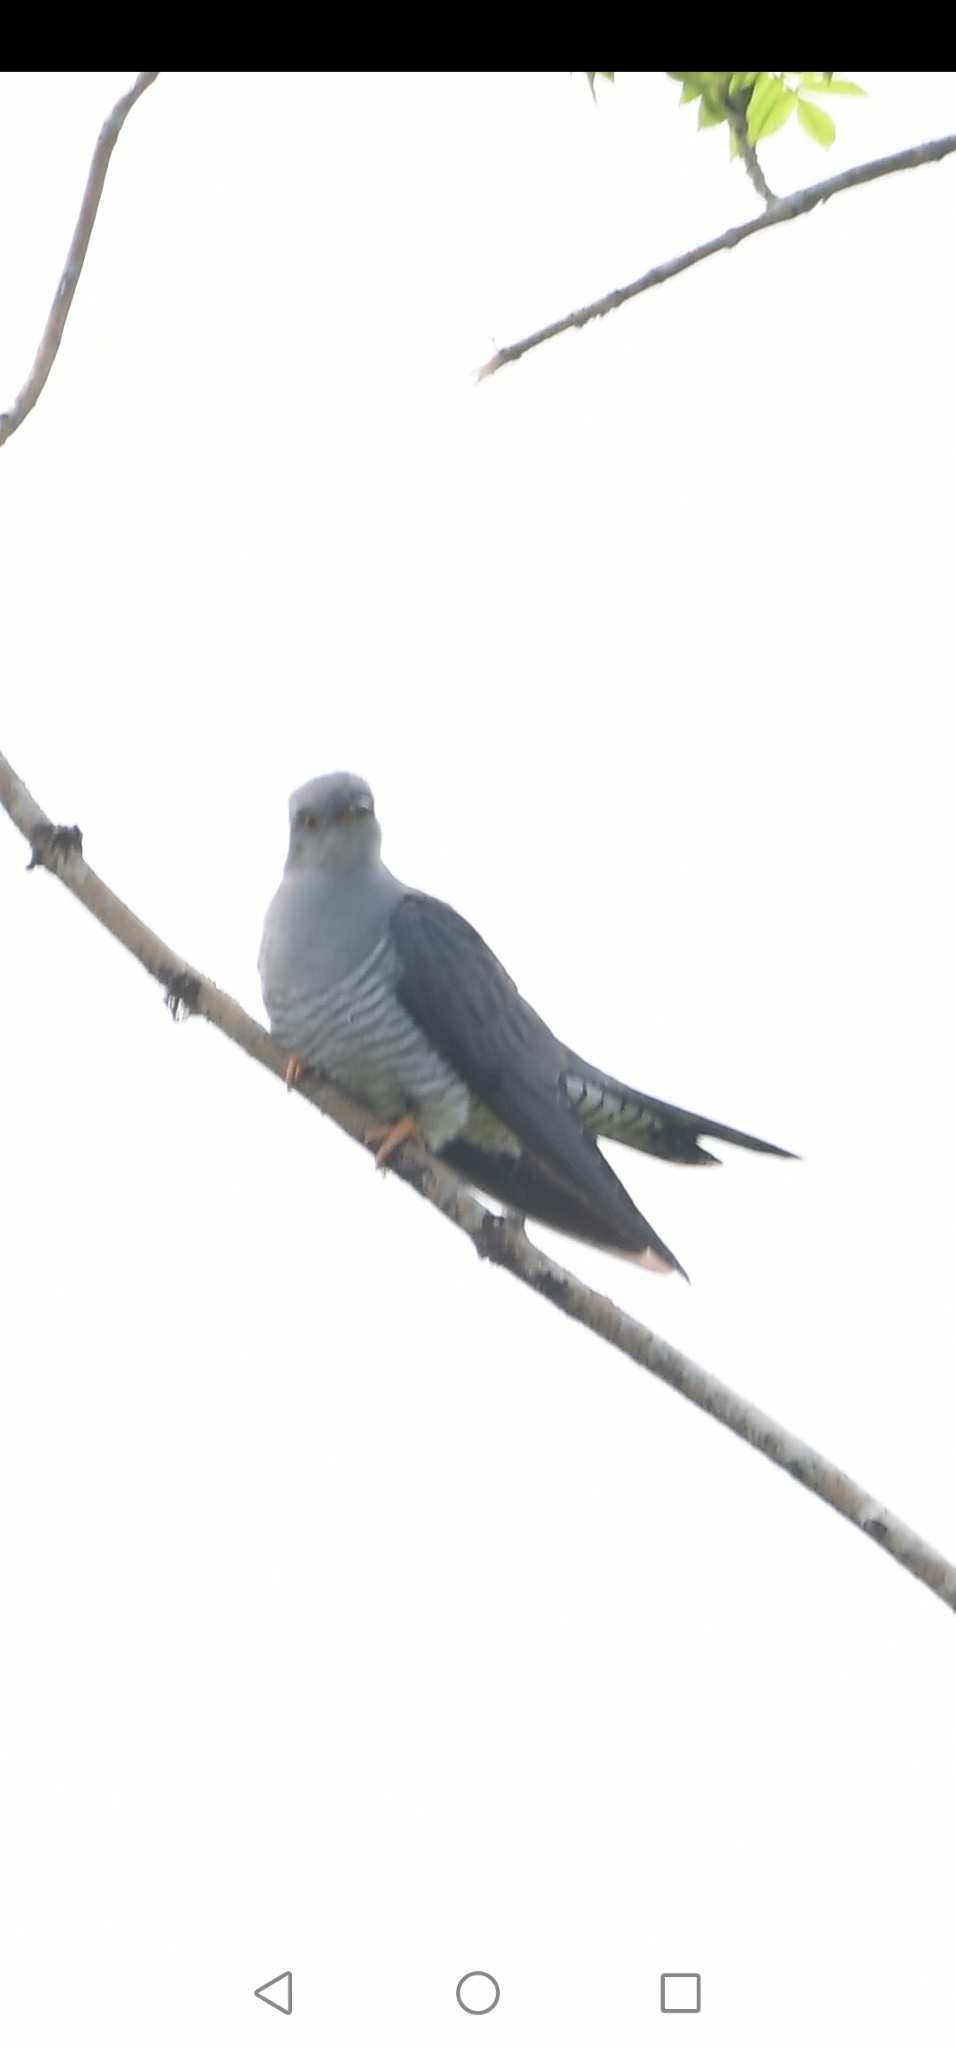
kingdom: Animalia
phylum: Chordata
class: Aves
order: Cuculiformes
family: Cuculidae
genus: Cuculus
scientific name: Cuculus canorus
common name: Common cuckoo
